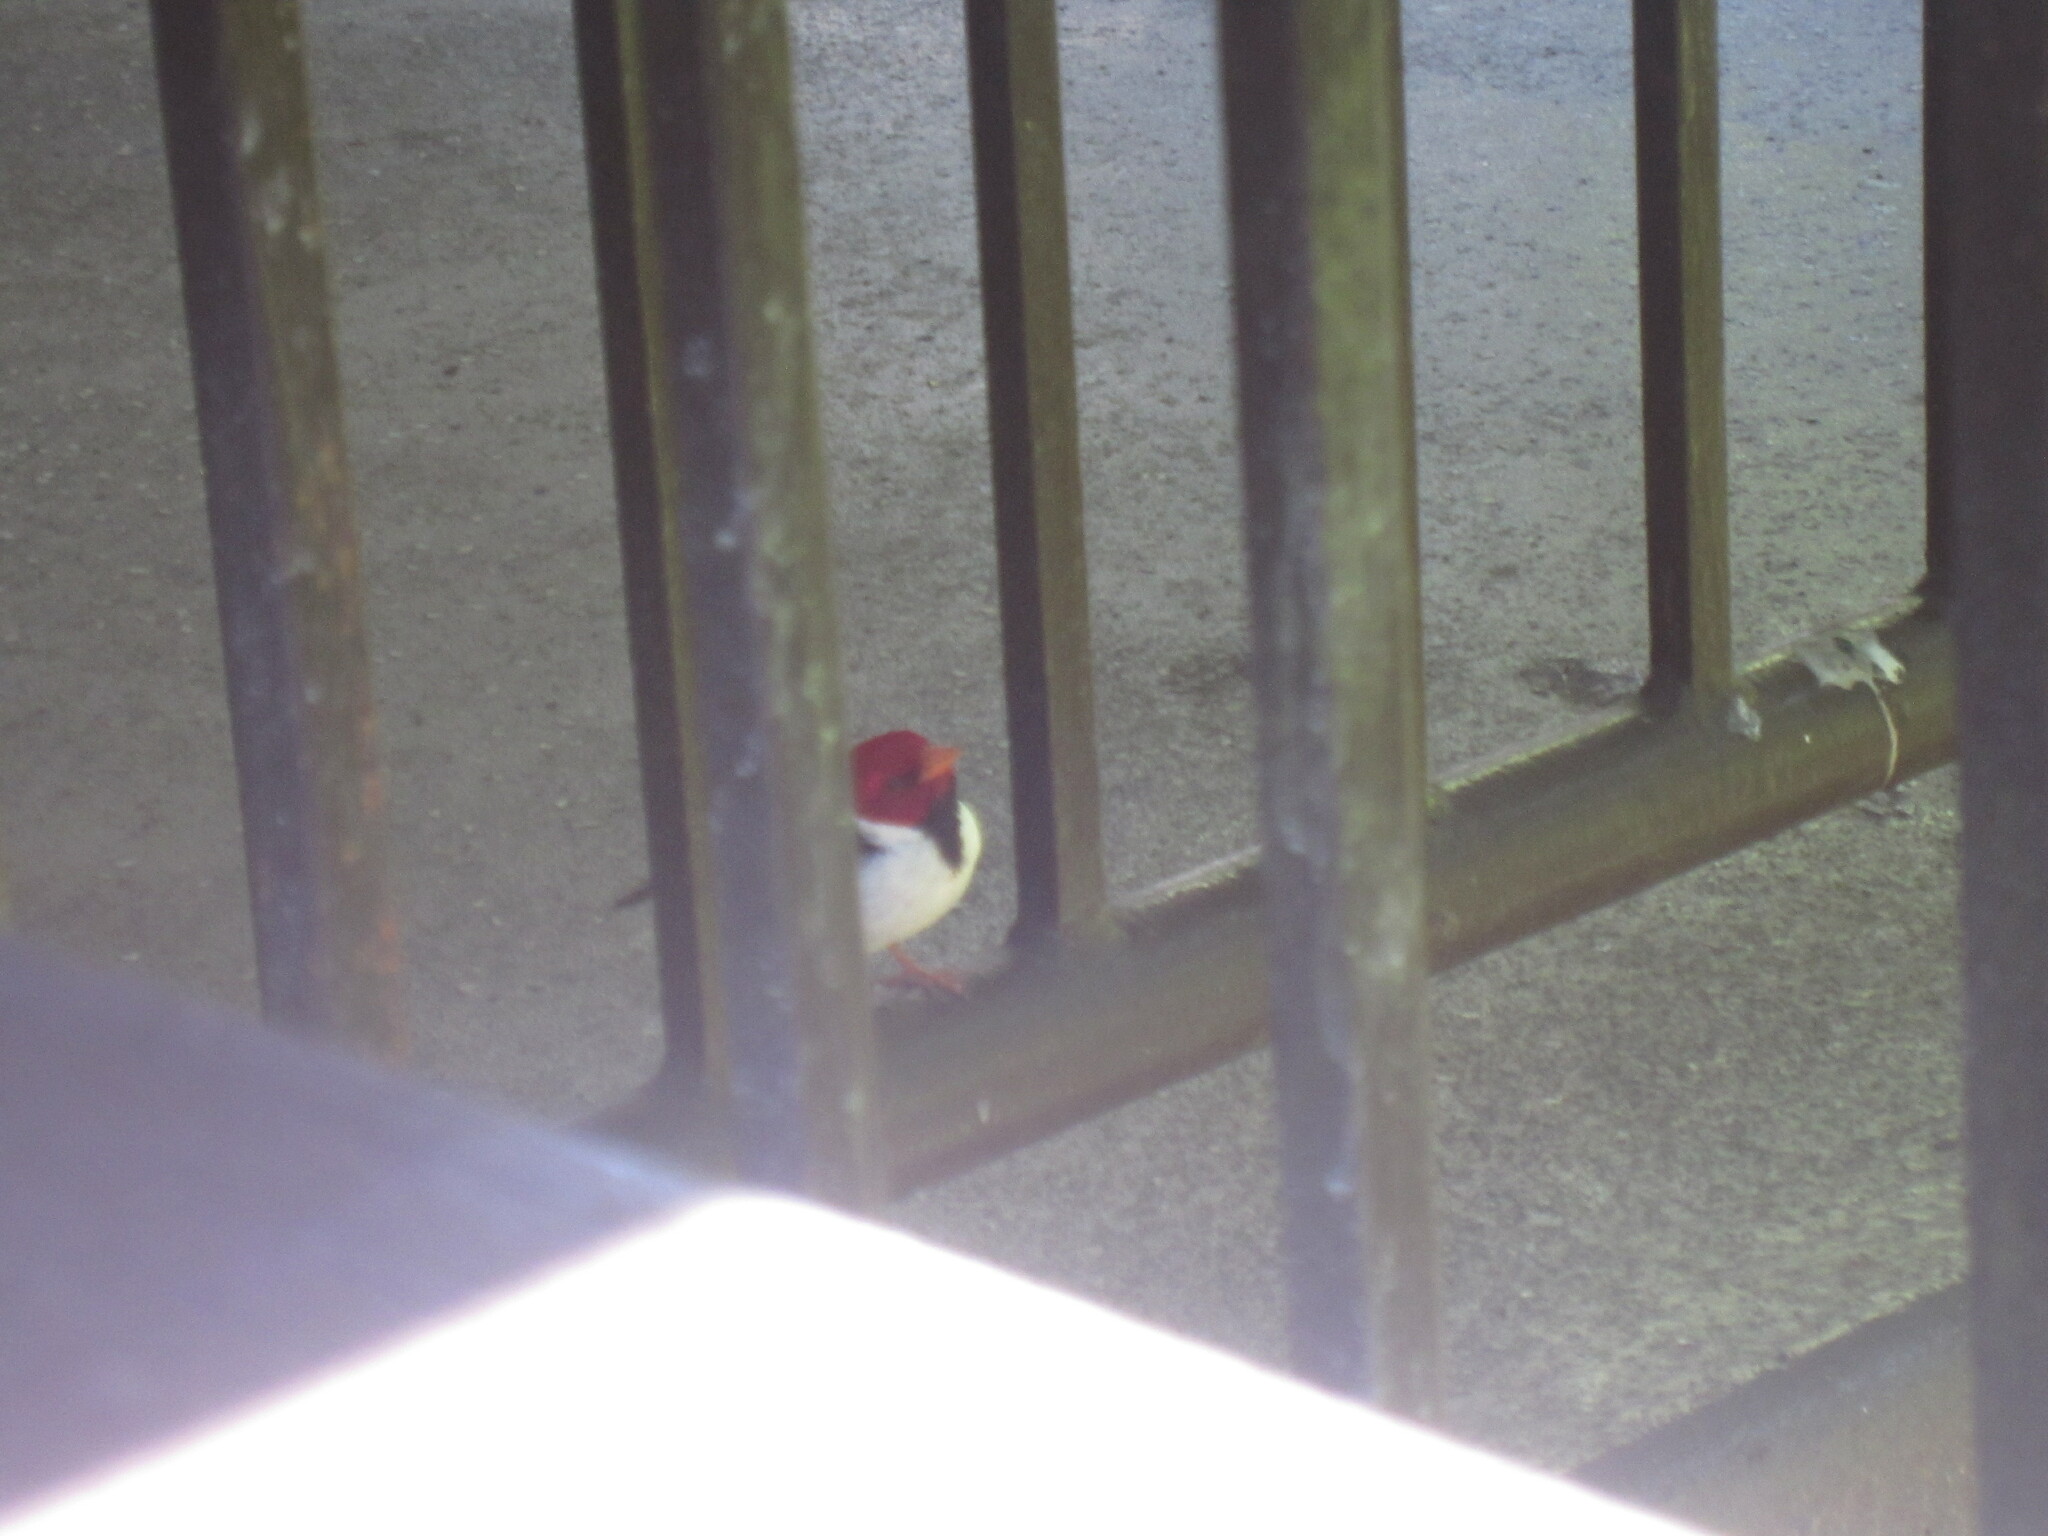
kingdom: Animalia
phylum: Chordata
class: Aves
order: Passeriformes
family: Thraupidae
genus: Paroaria
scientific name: Paroaria capitata
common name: Yellow-billed cardinal
